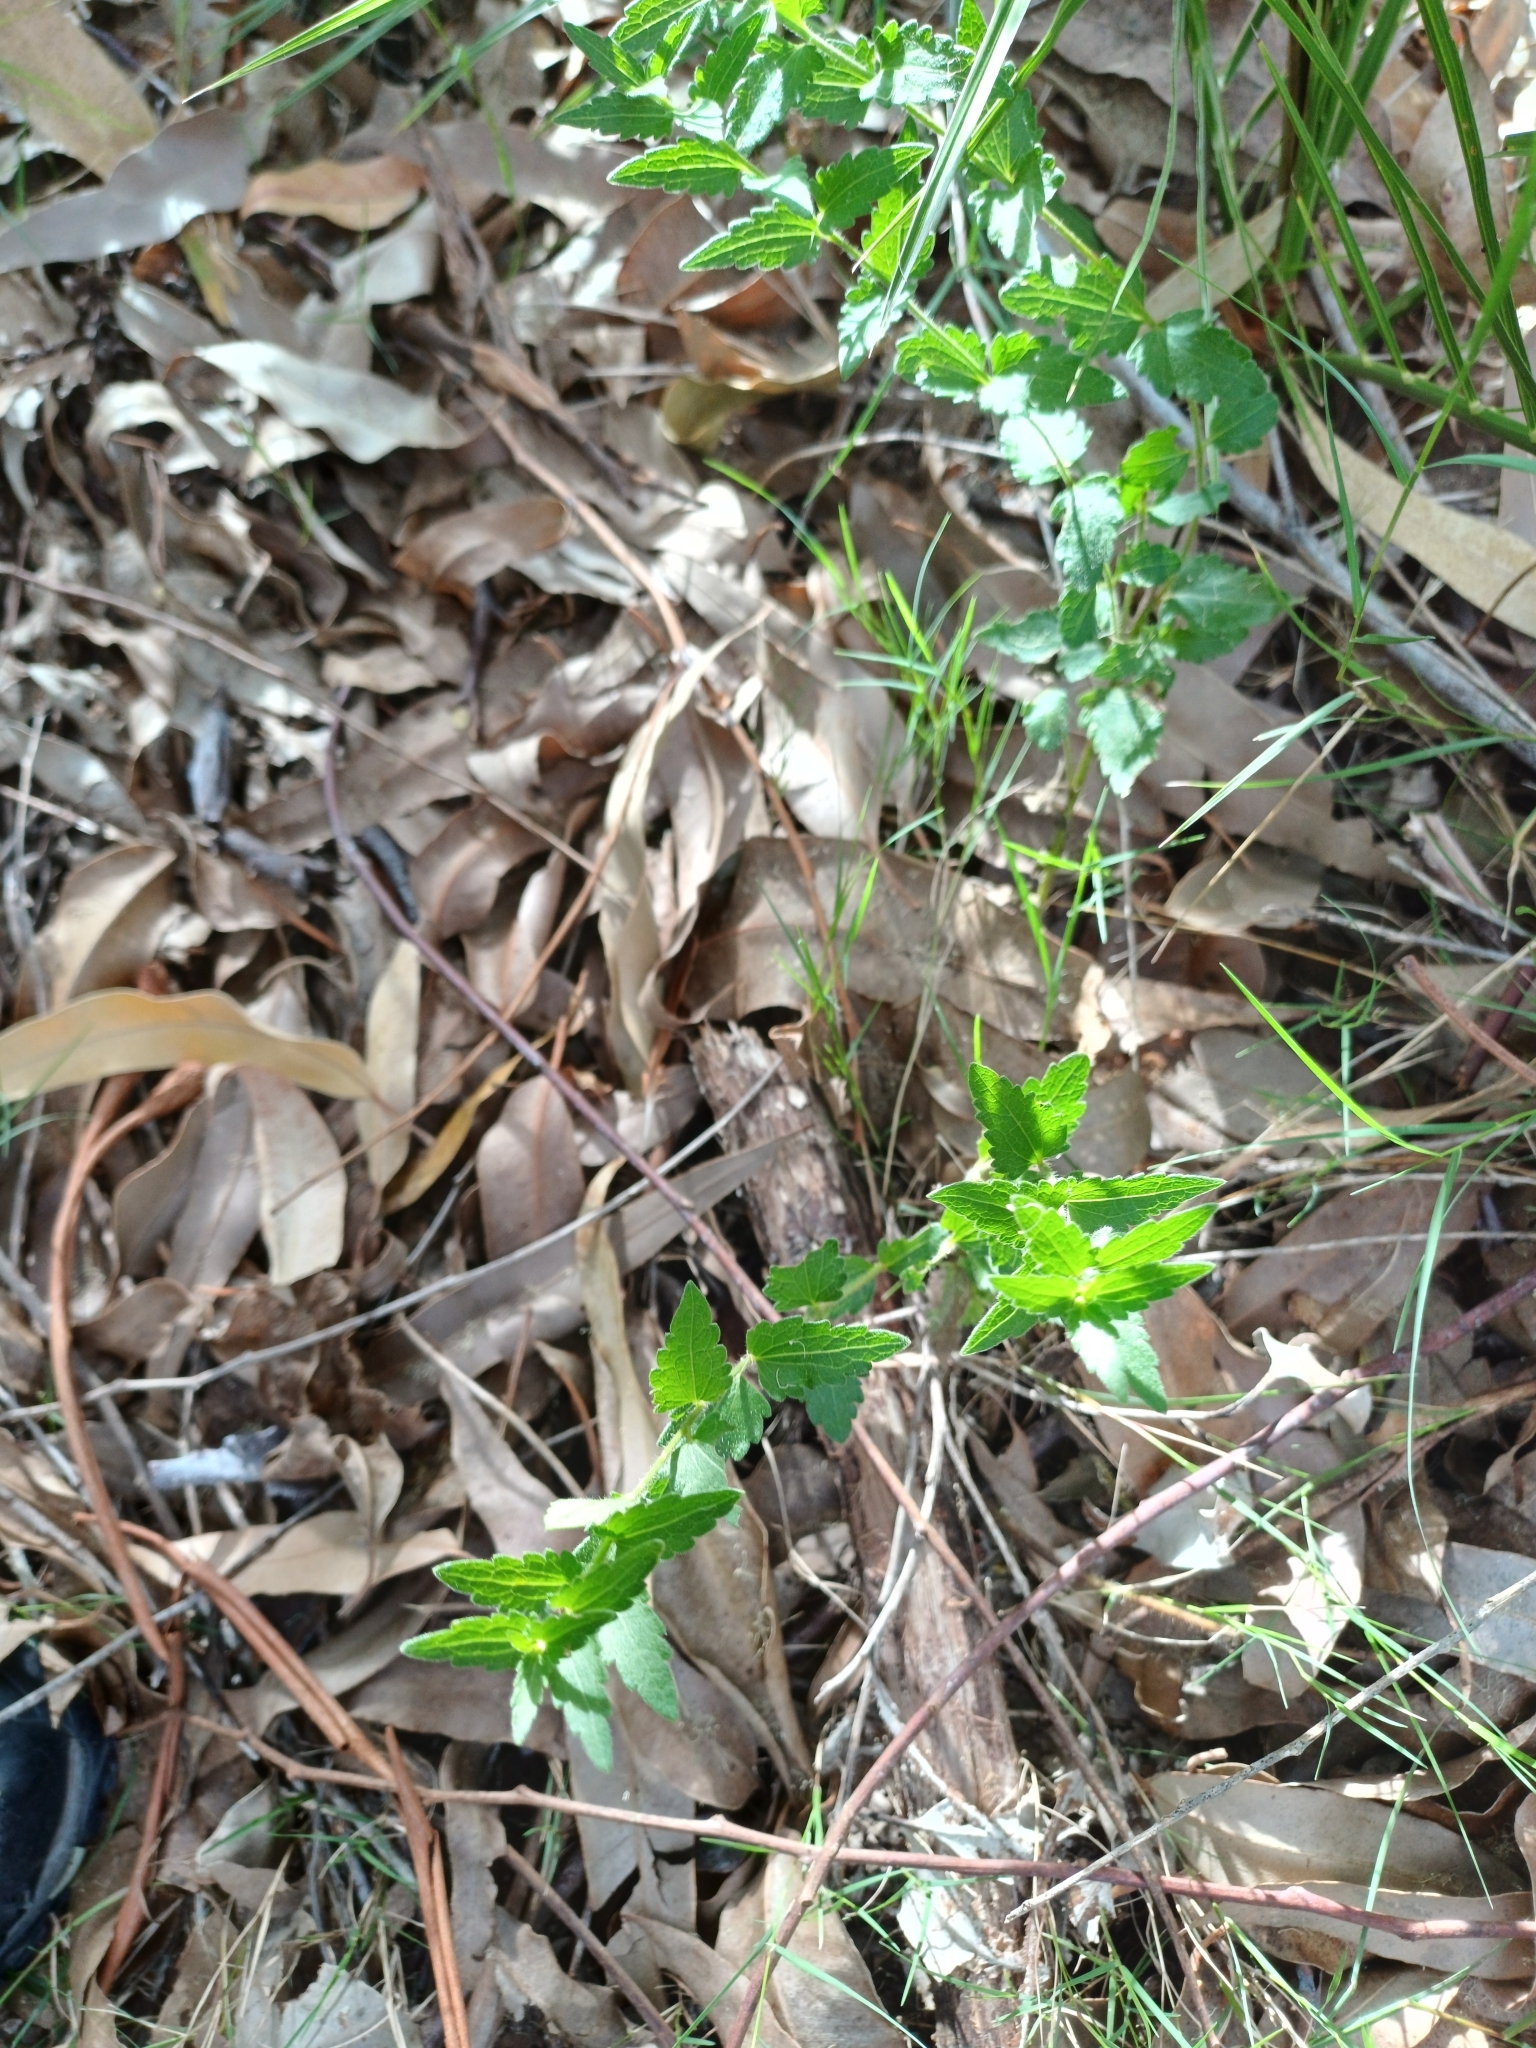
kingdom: Plantae
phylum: Tracheophyta
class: Magnoliopsida
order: Asterales
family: Asteraceae
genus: Chromolaena
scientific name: Chromolaena hirsuta
